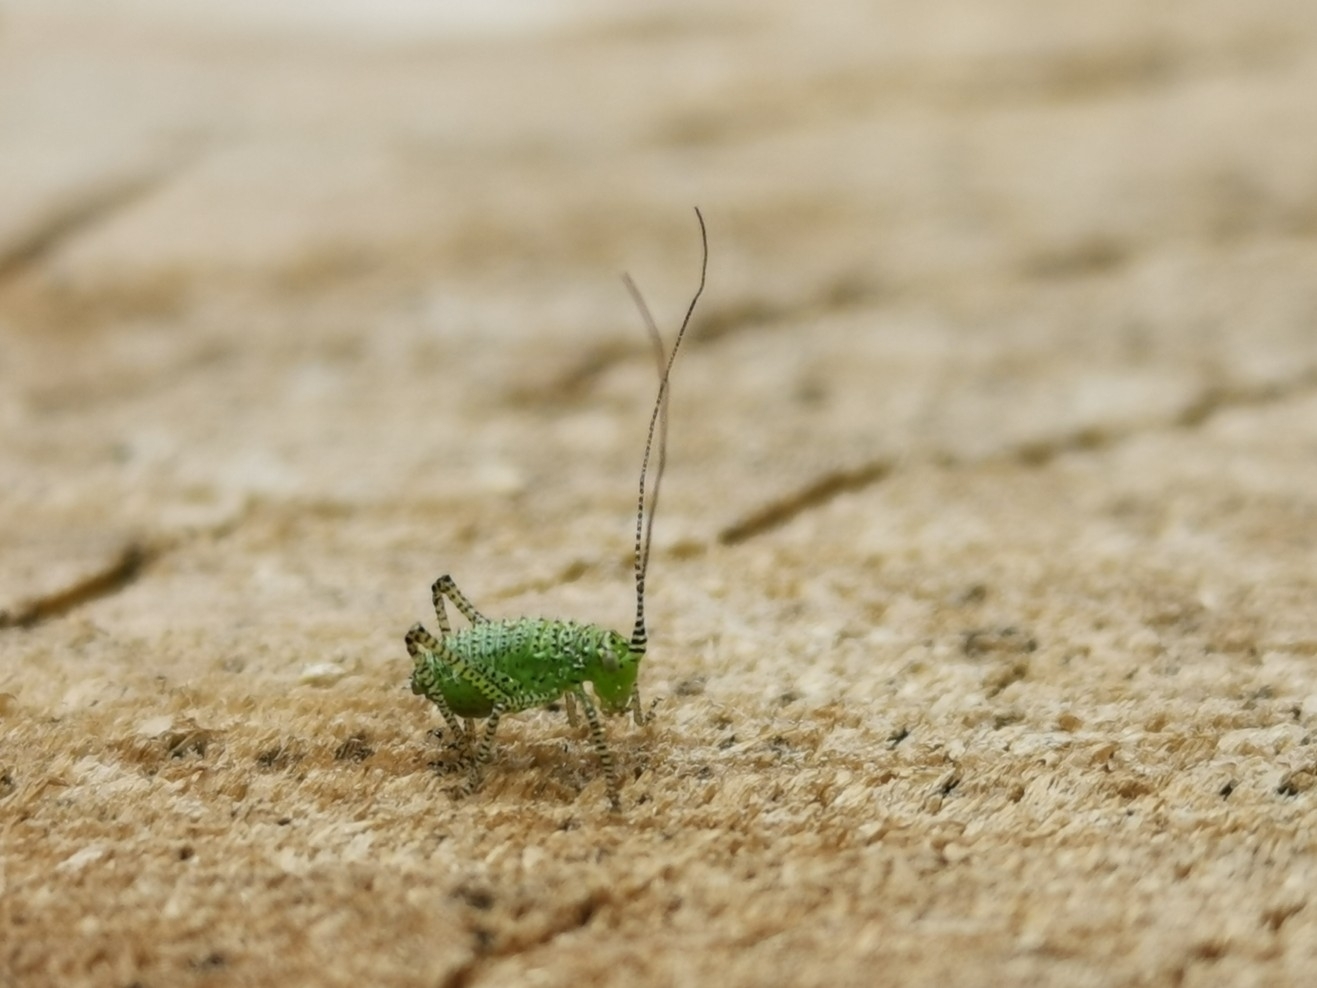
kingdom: Animalia
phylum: Arthropoda
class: Insecta
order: Orthoptera
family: Tettigoniidae
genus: Leptophyes
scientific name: Leptophyes punctatissima
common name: Speckled bush-cricket
